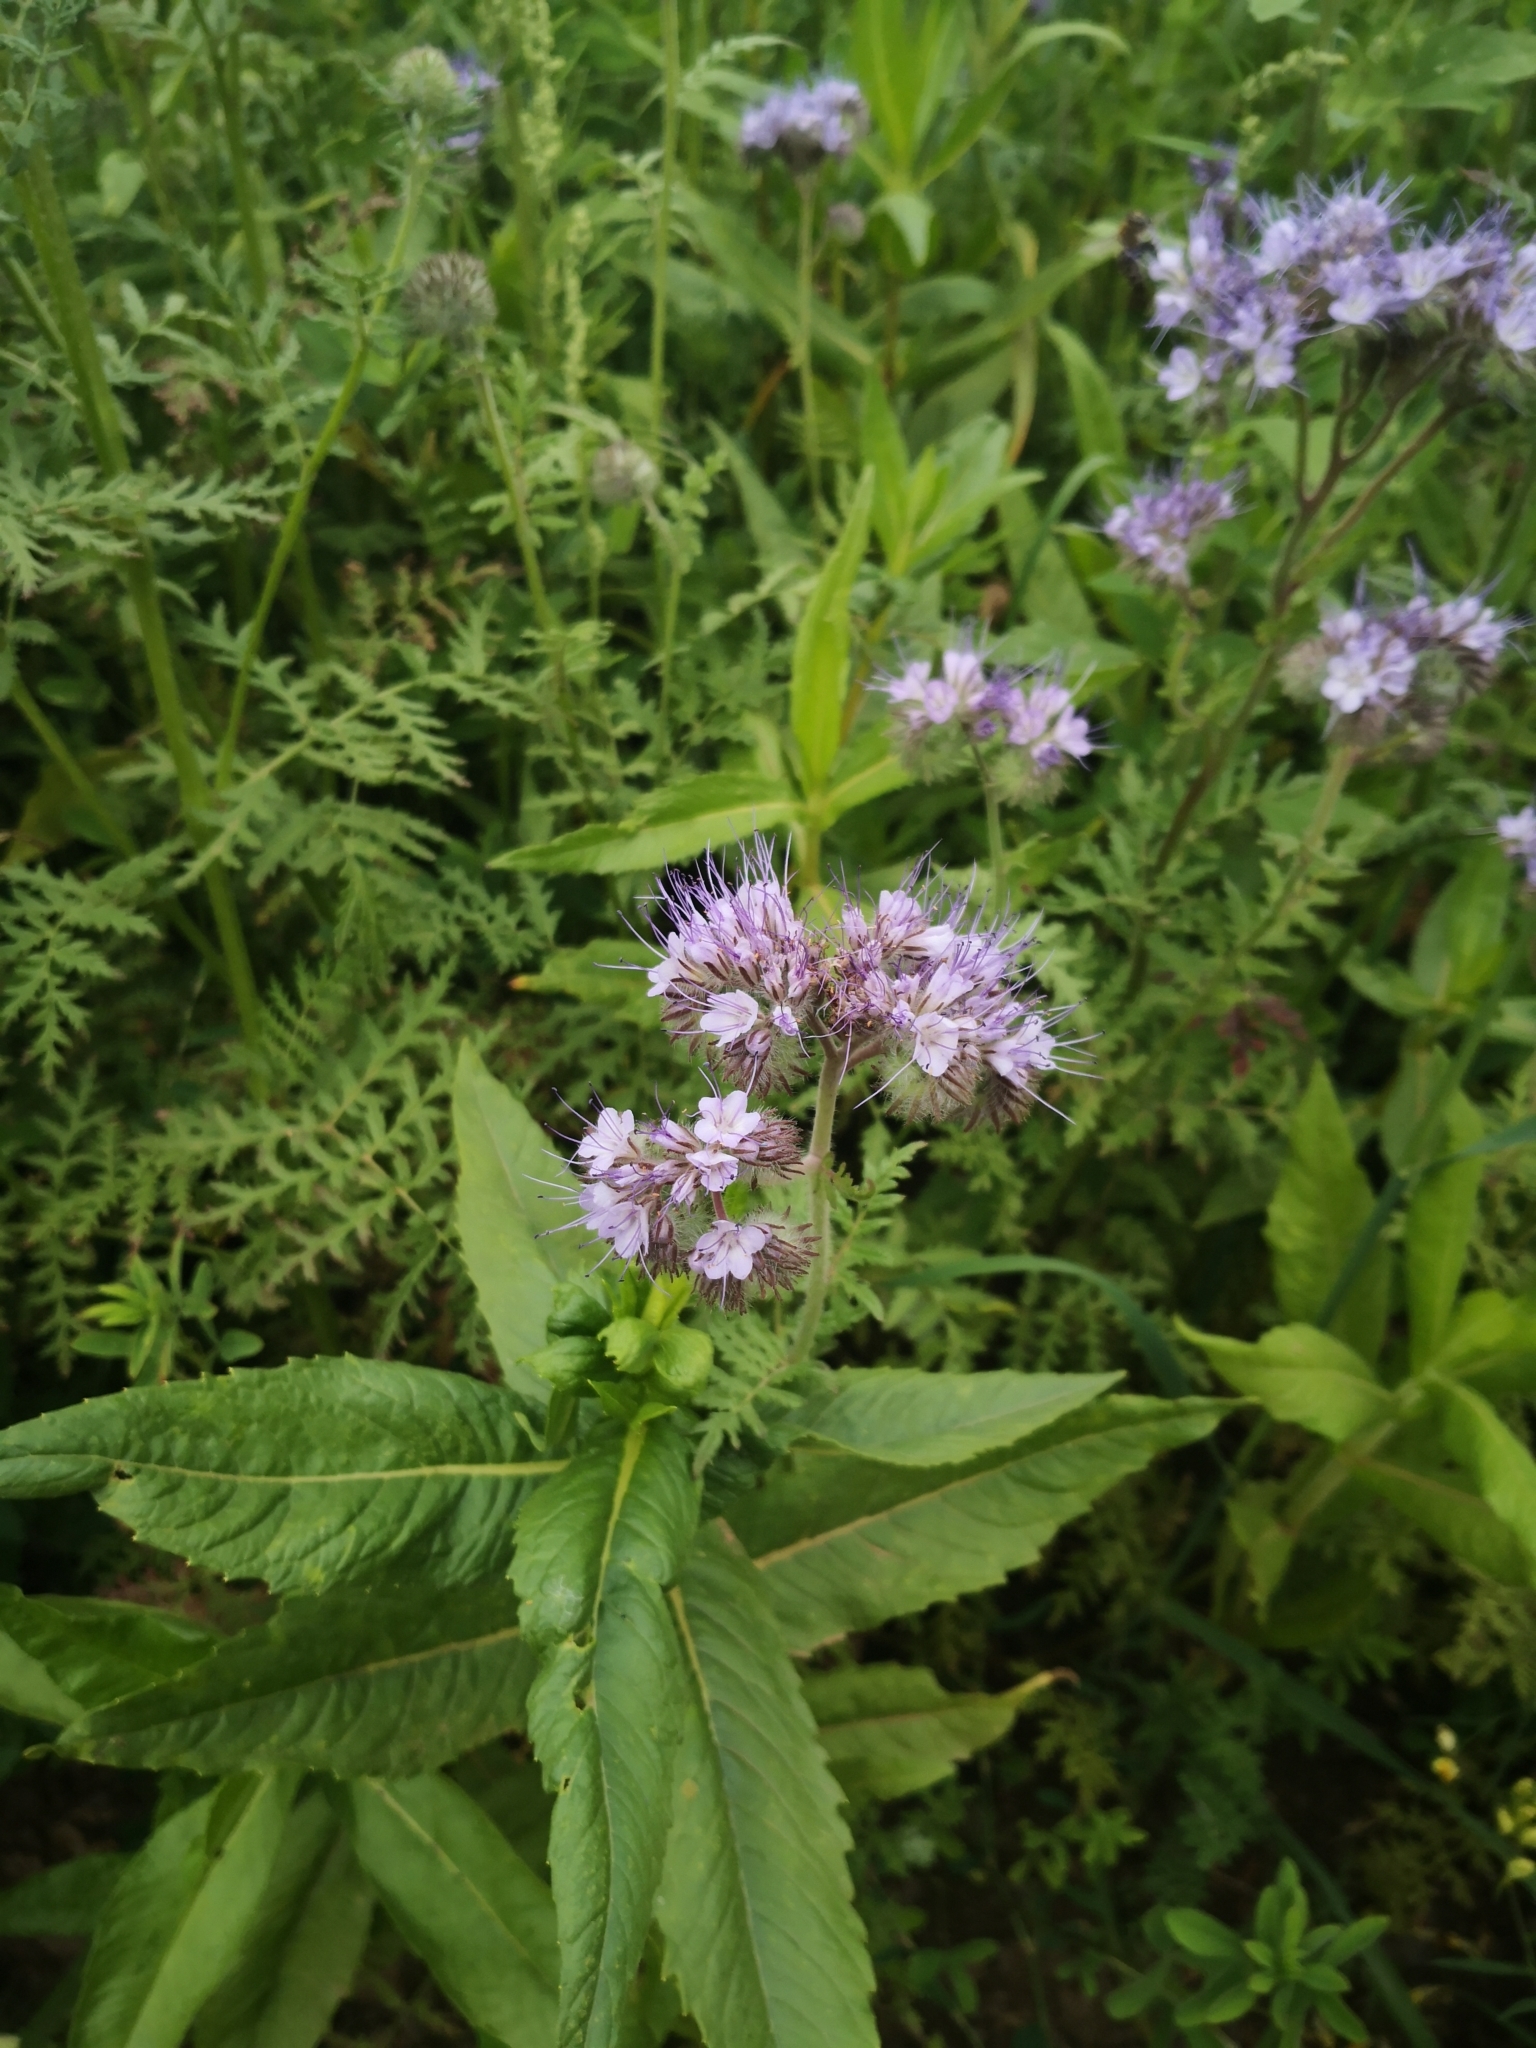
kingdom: Plantae
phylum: Tracheophyta
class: Magnoliopsida
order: Boraginales
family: Hydrophyllaceae
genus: Phacelia
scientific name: Phacelia tanacetifolia
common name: Phacelia
